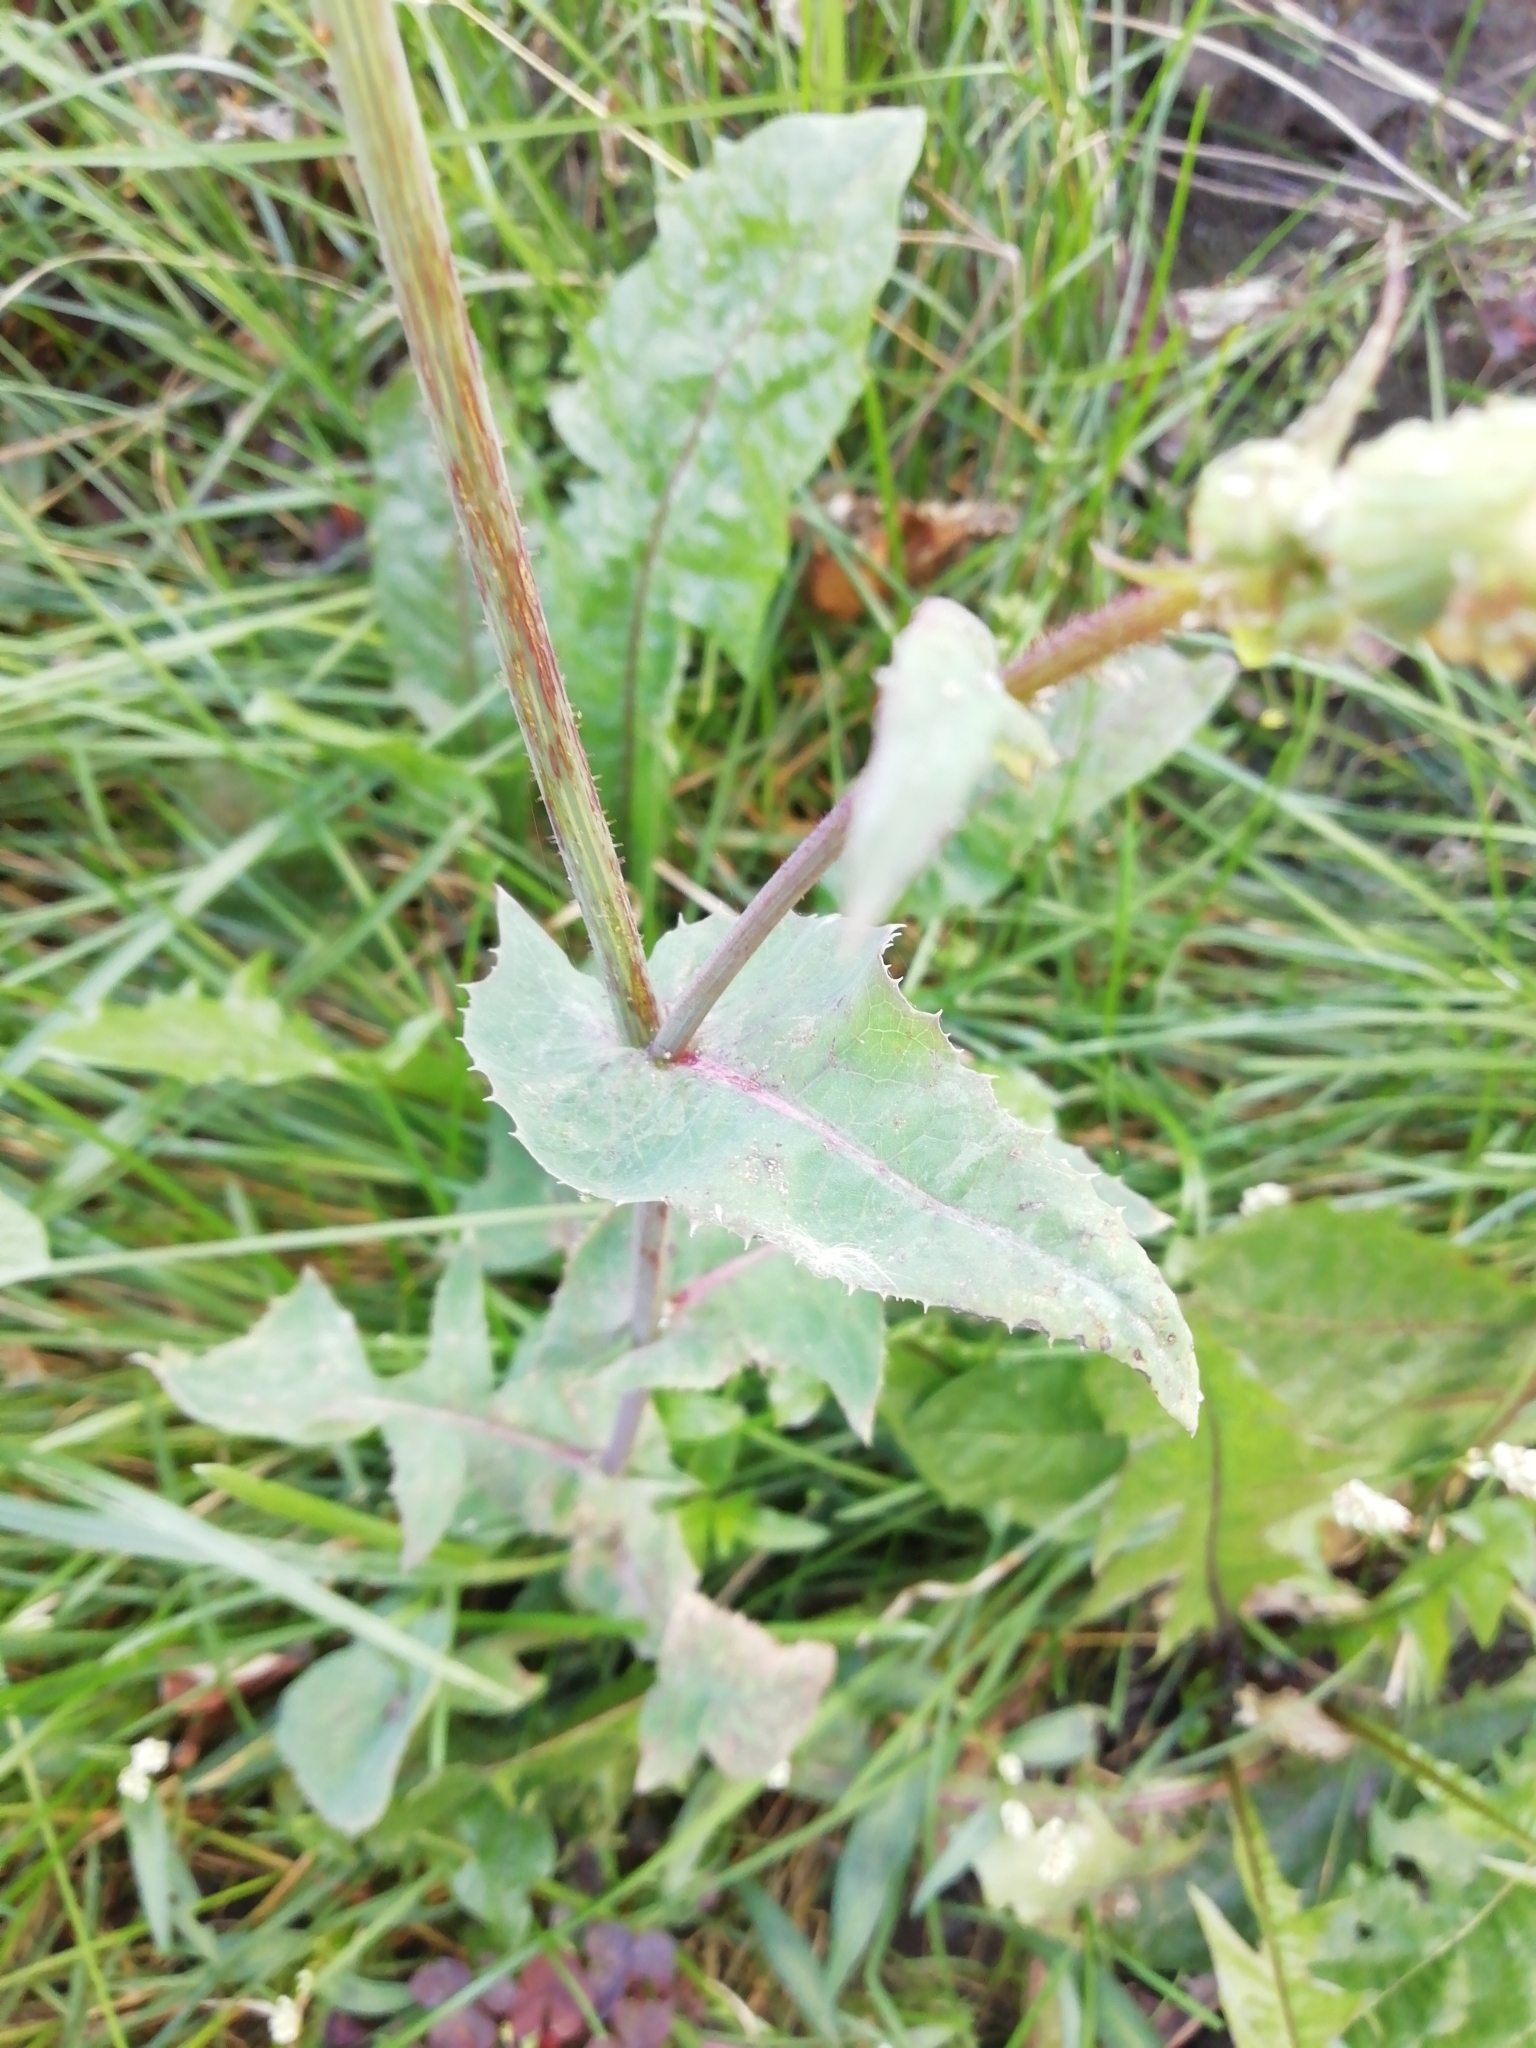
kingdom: Plantae
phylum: Tracheophyta
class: Magnoliopsida
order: Asterales
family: Asteraceae
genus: Sonchus
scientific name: Sonchus oleraceus
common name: Common sowthistle
